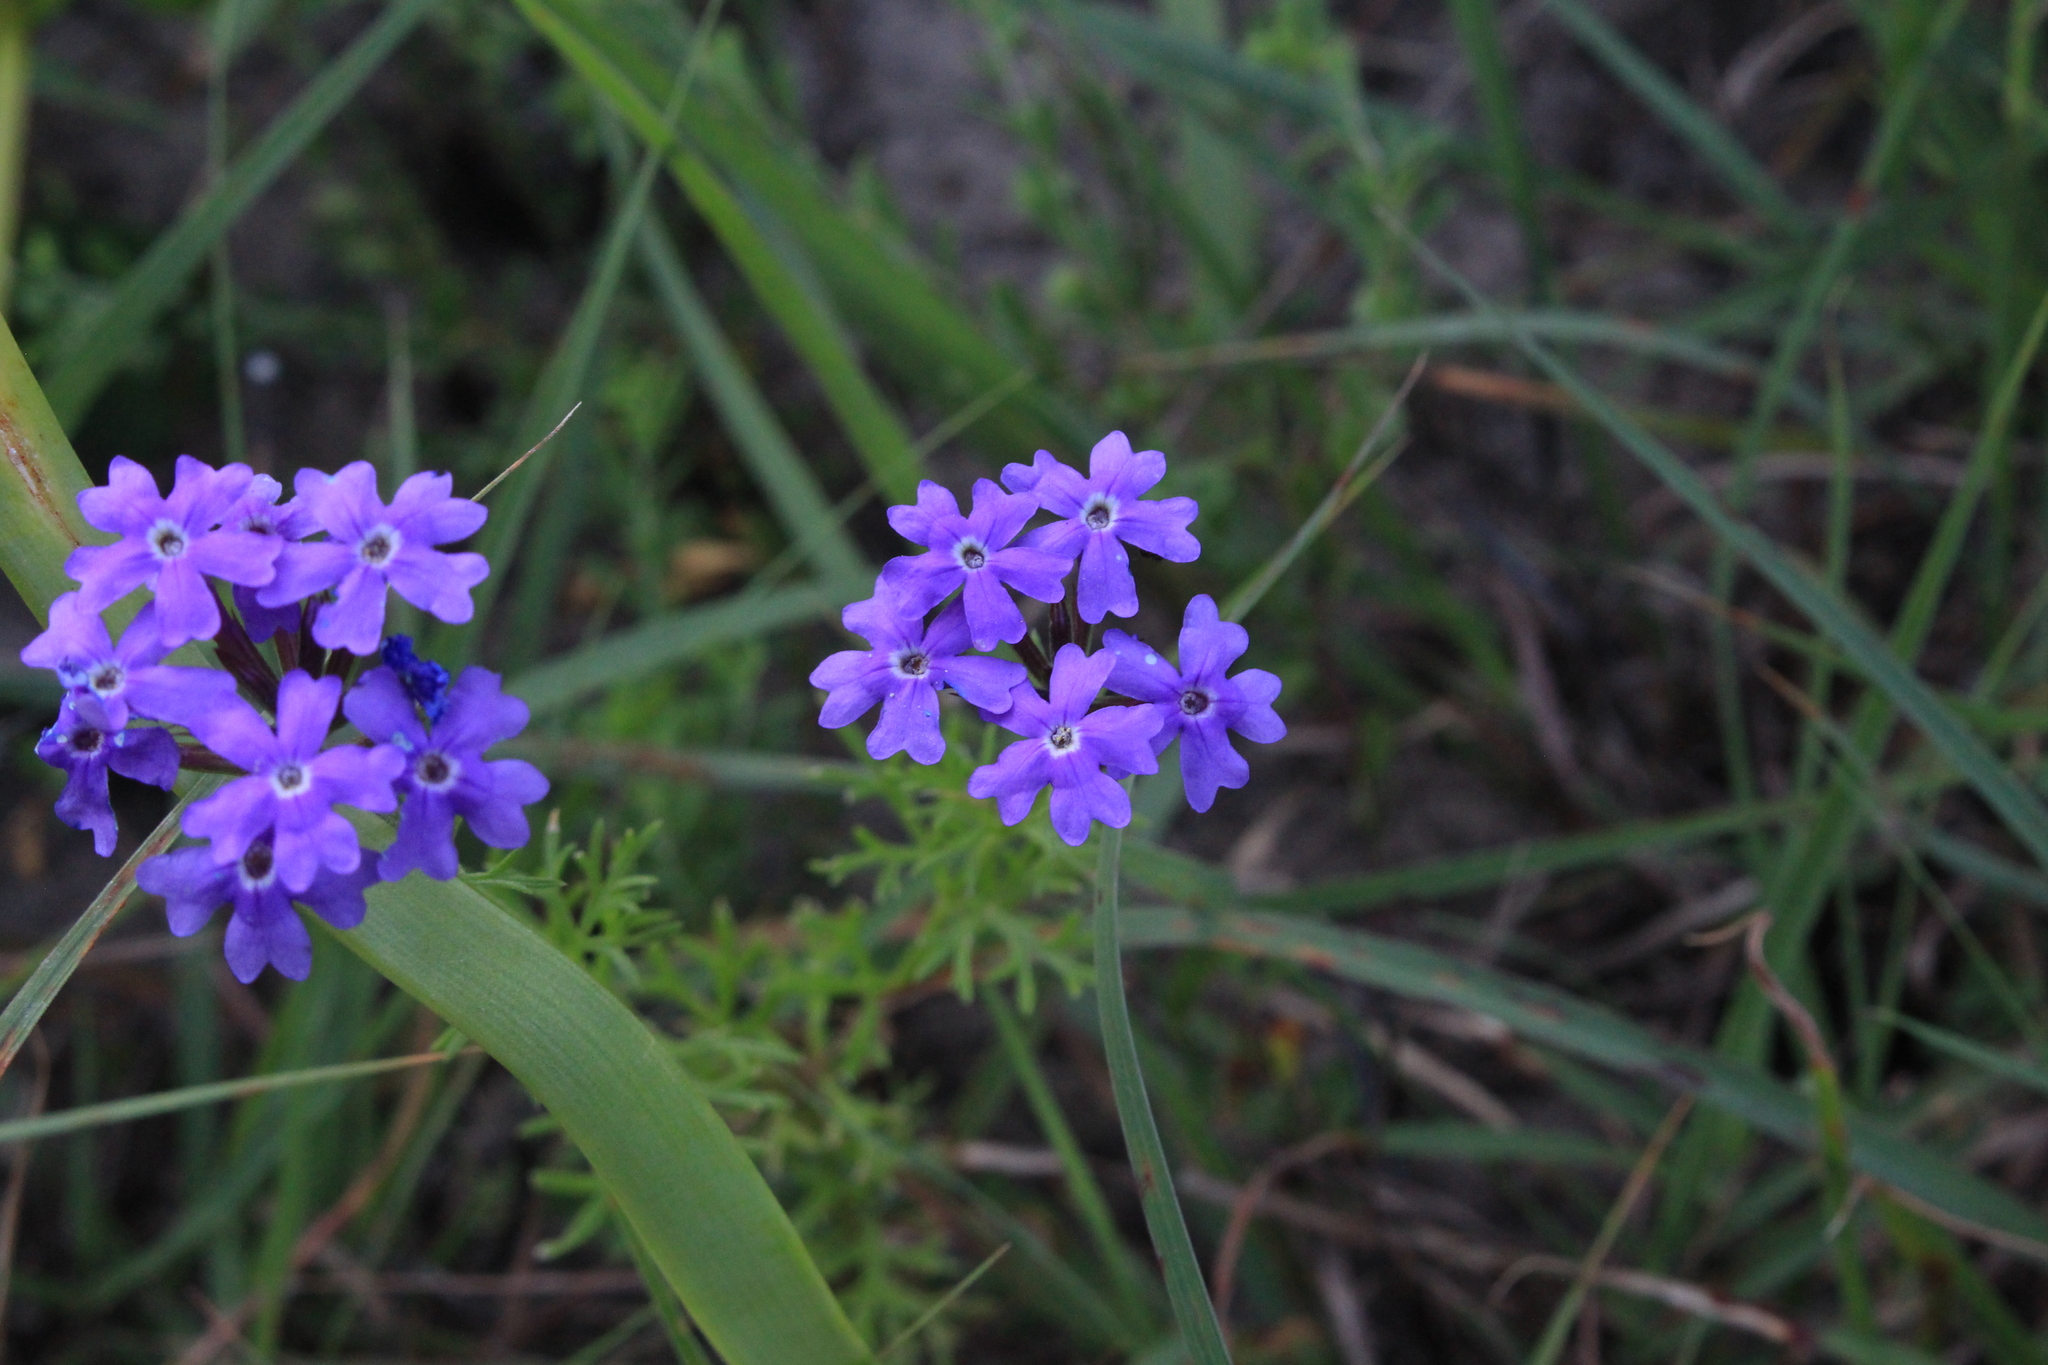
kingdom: Plantae
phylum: Tracheophyta
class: Magnoliopsida
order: Lamiales
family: Verbenaceae
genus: Verbena
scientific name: Verbena bipinnatifida
